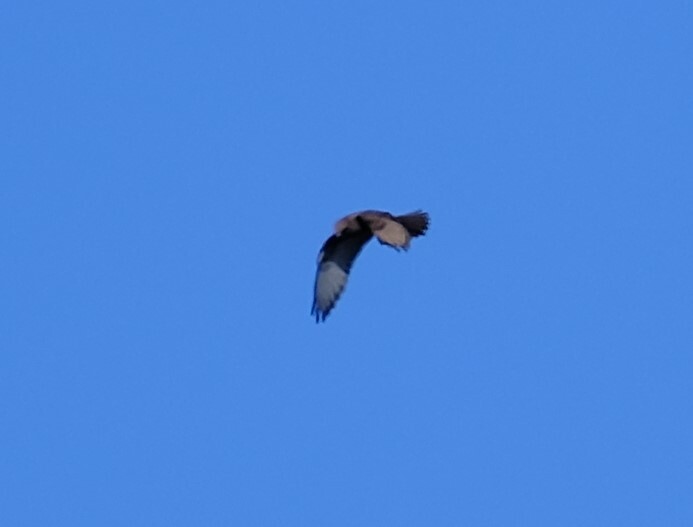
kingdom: Animalia
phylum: Chordata
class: Aves
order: Falconiformes
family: Falconidae
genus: Falco
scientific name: Falco berigora
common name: Brown falcon
